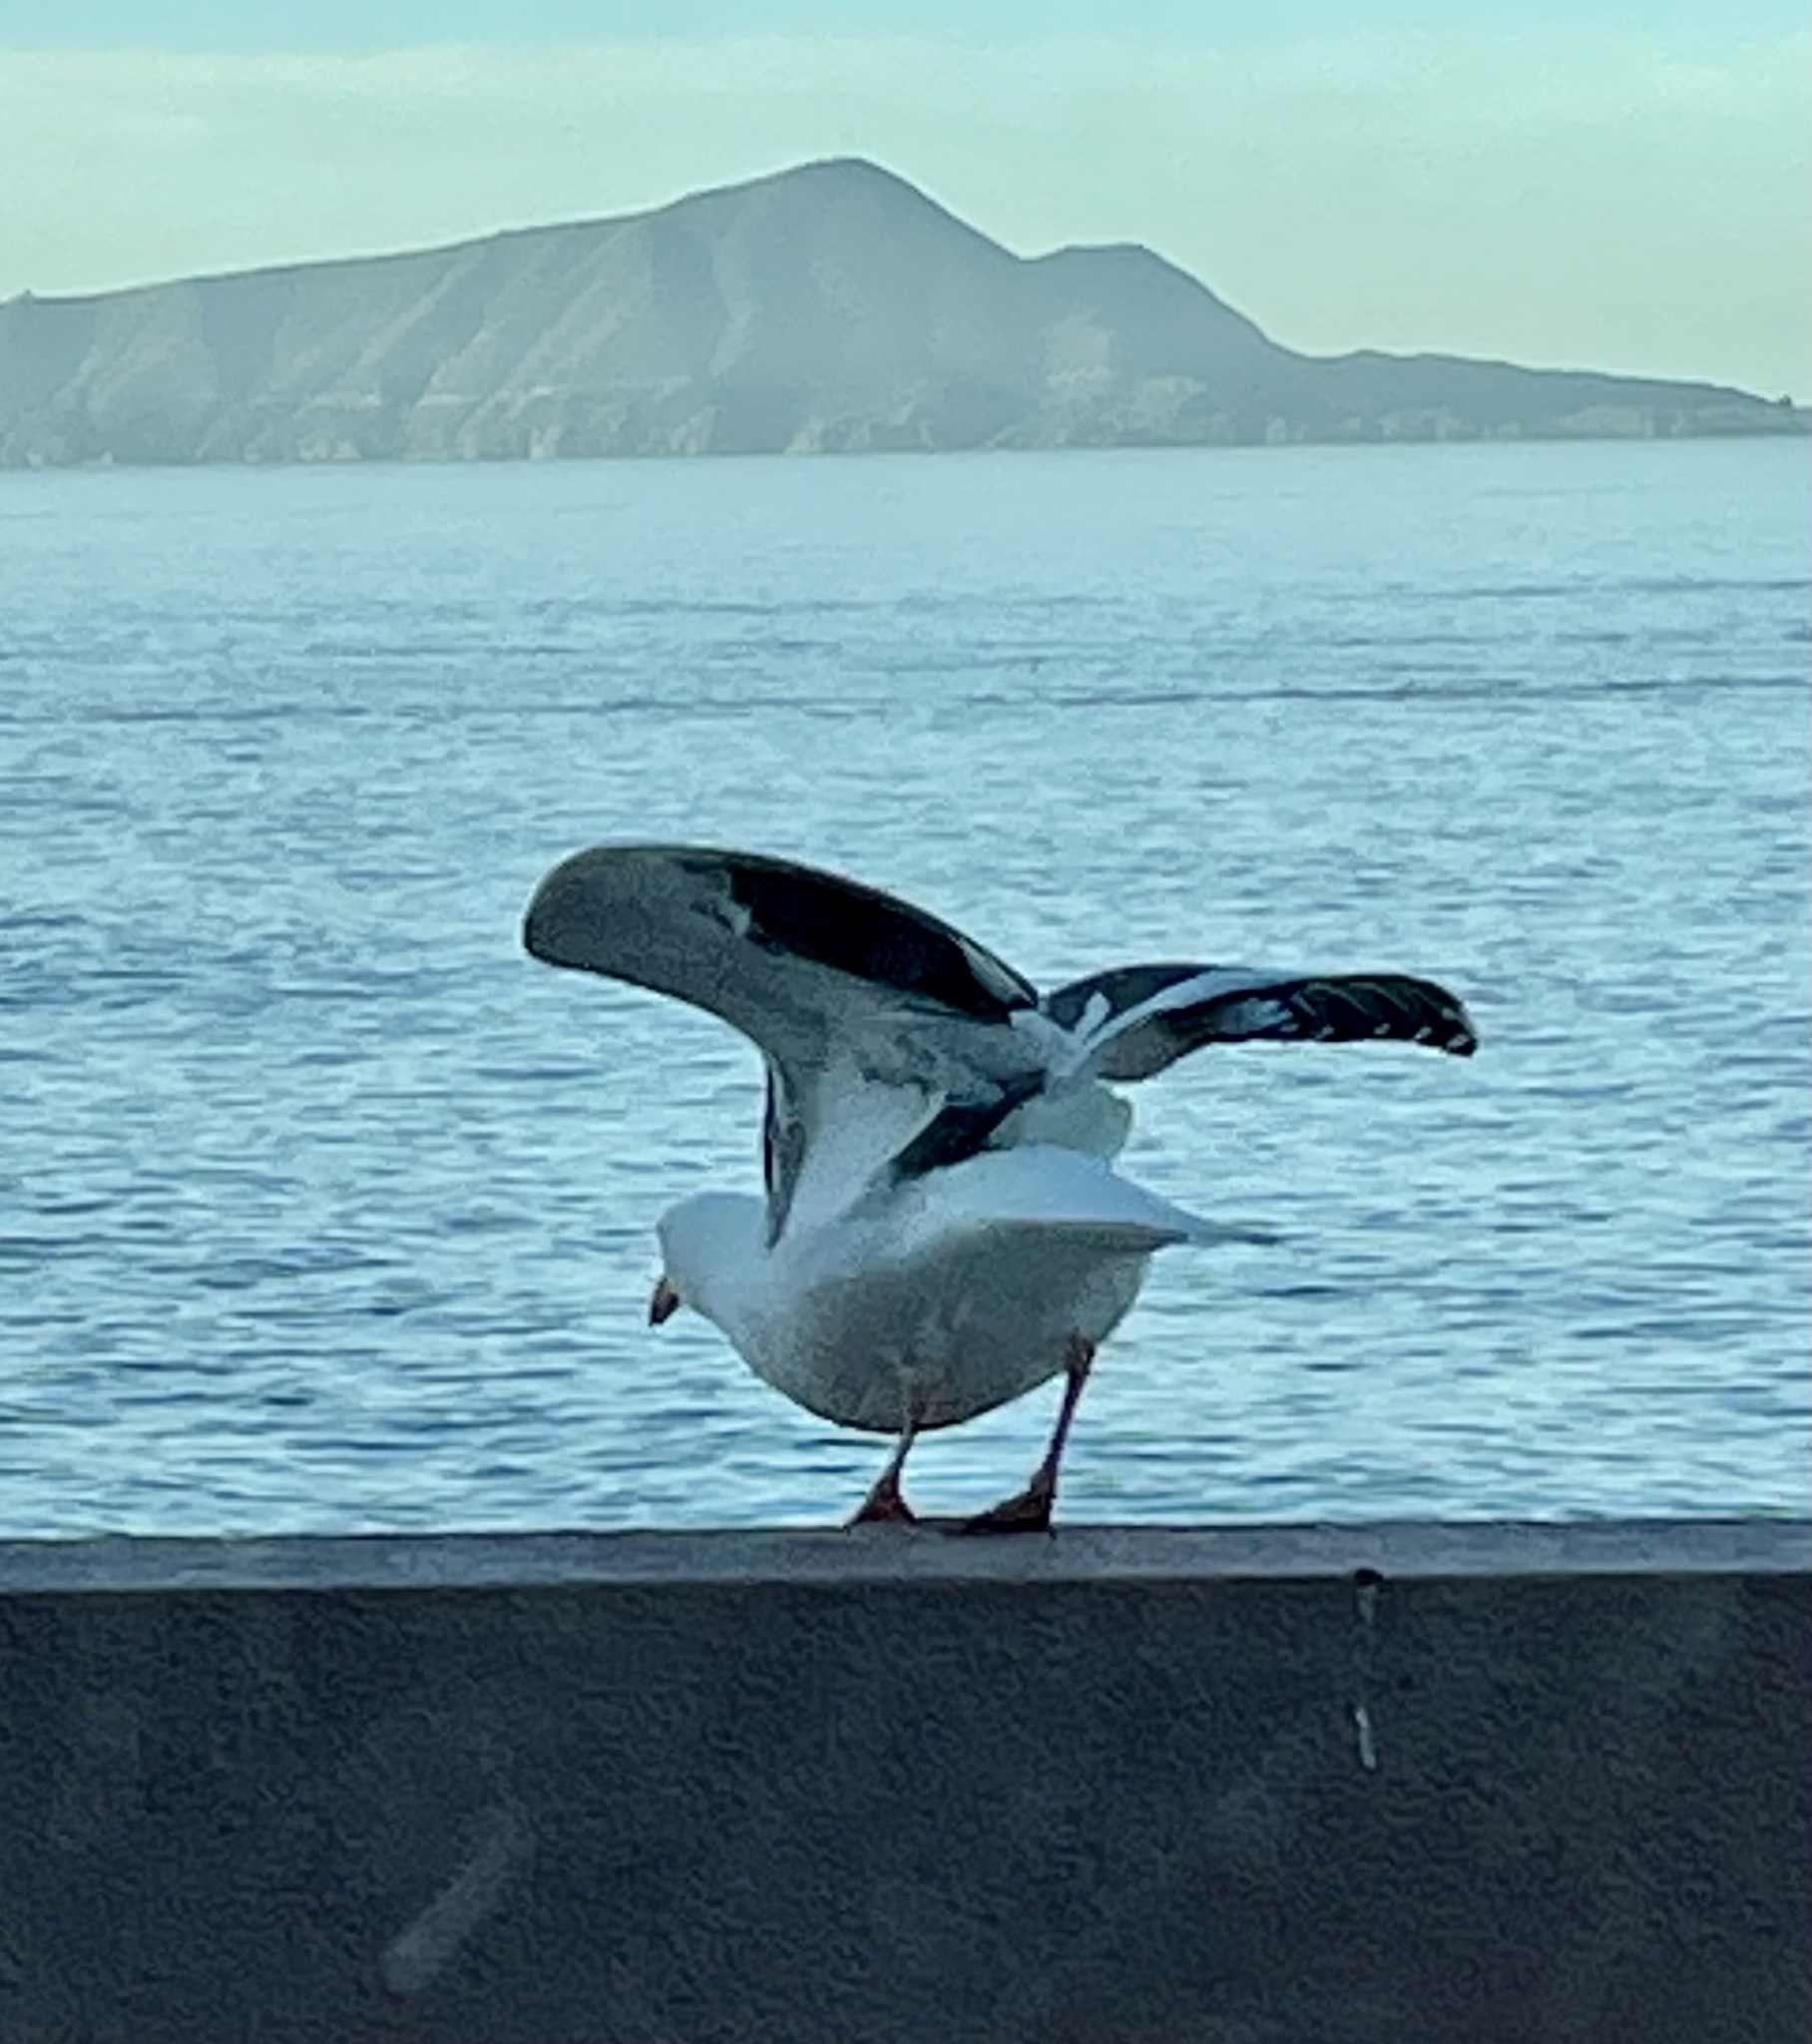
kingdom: Animalia
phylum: Chordata
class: Aves
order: Charadriiformes
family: Laridae
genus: Larus
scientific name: Larus occidentalis
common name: Western gull
